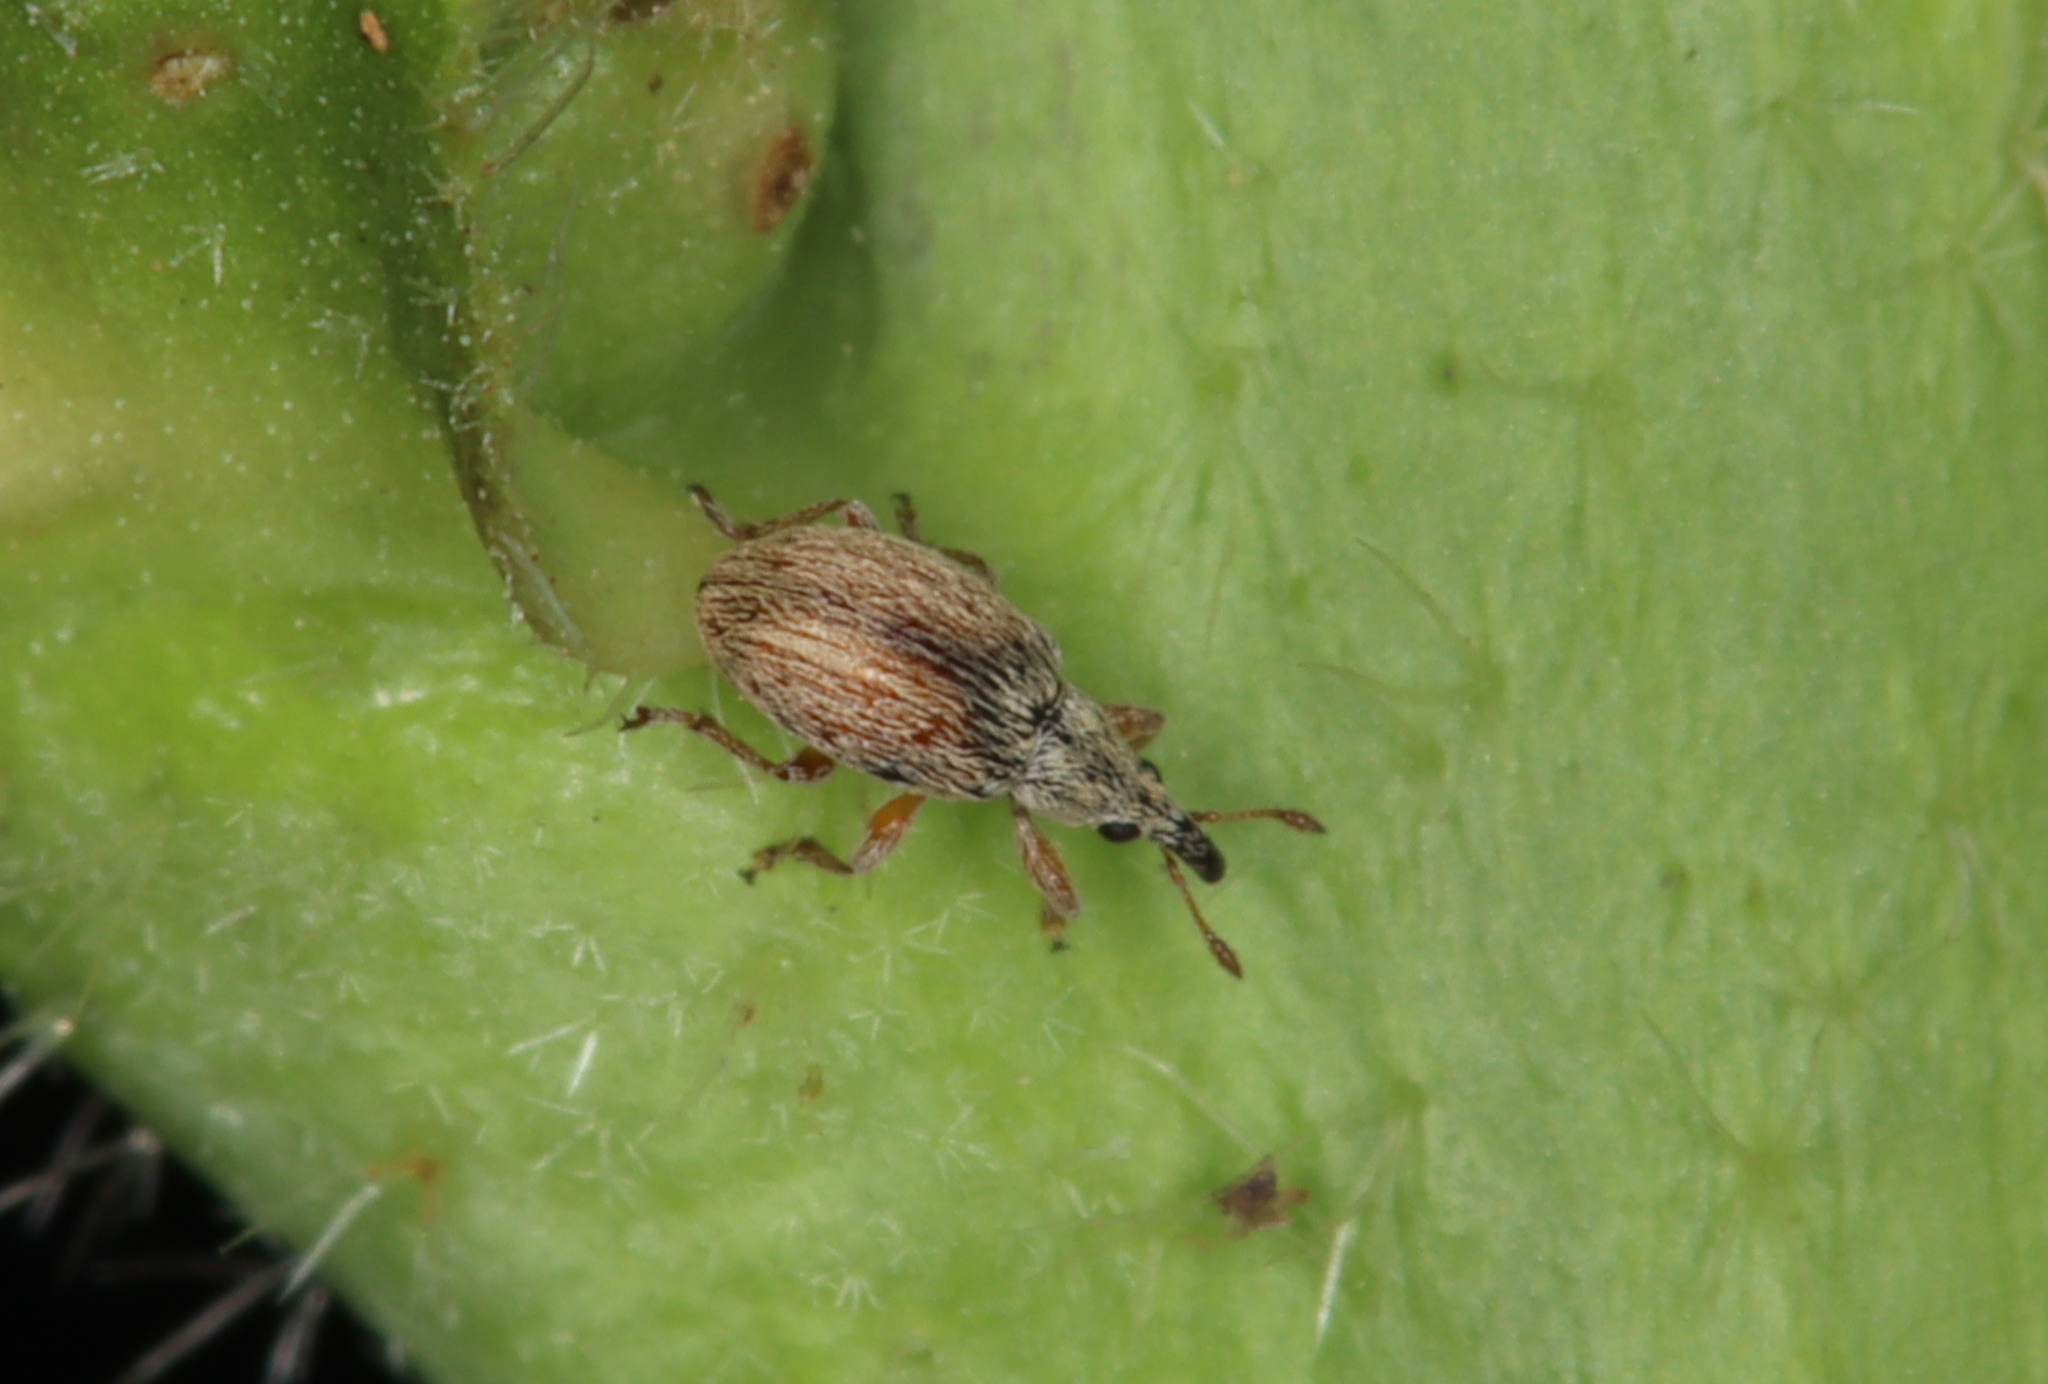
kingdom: Animalia
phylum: Arthropoda
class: Insecta
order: Coleoptera
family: Apionidae
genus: Malvapion
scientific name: Malvapion malvae
